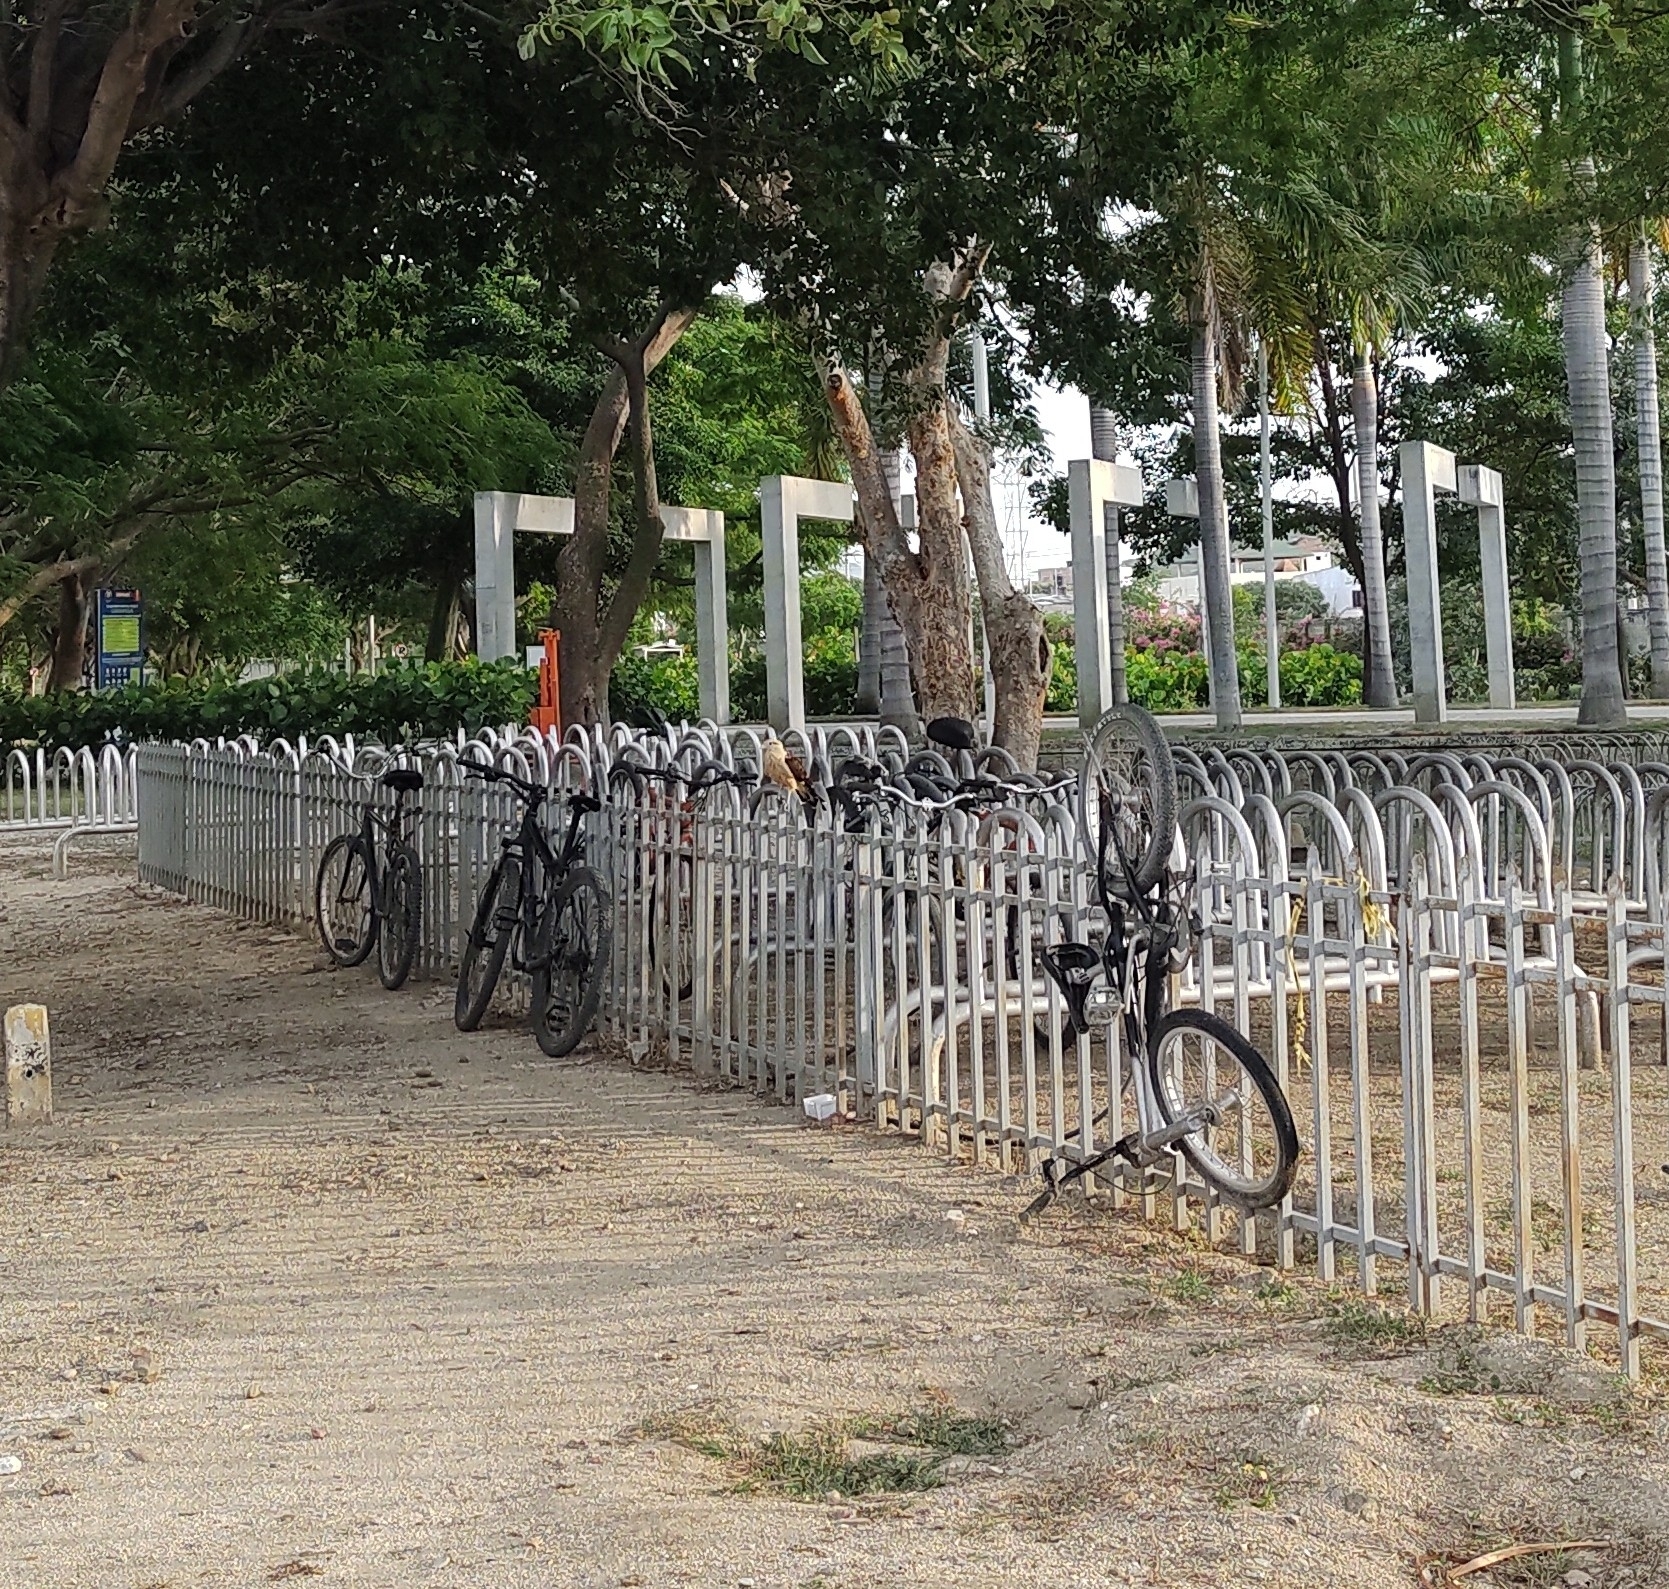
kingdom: Animalia
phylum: Chordata
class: Aves
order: Falconiformes
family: Falconidae
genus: Daptrius
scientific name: Daptrius
